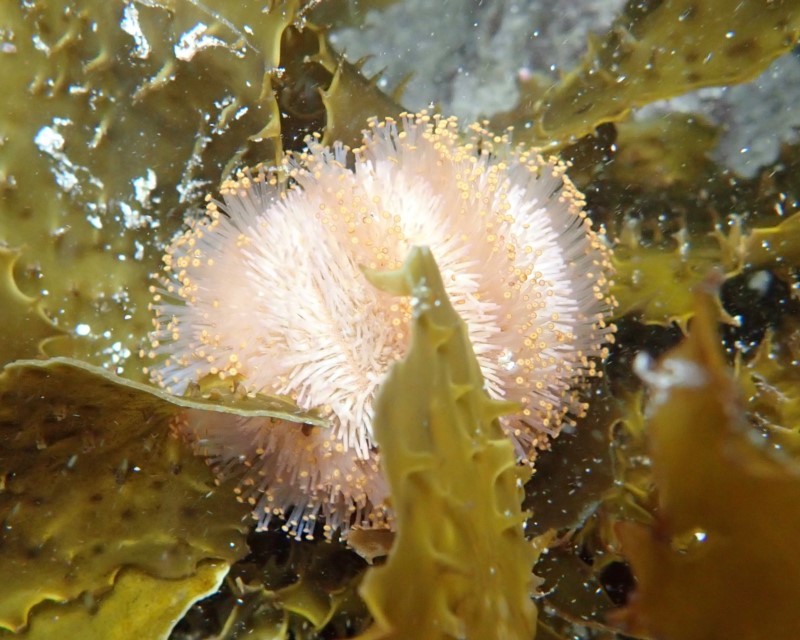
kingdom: Animalia
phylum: Echinodermata
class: Echinoidea
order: Camarodonta
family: Temnopleuridae
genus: Holopneustes
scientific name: Holopneustes purpurascens
